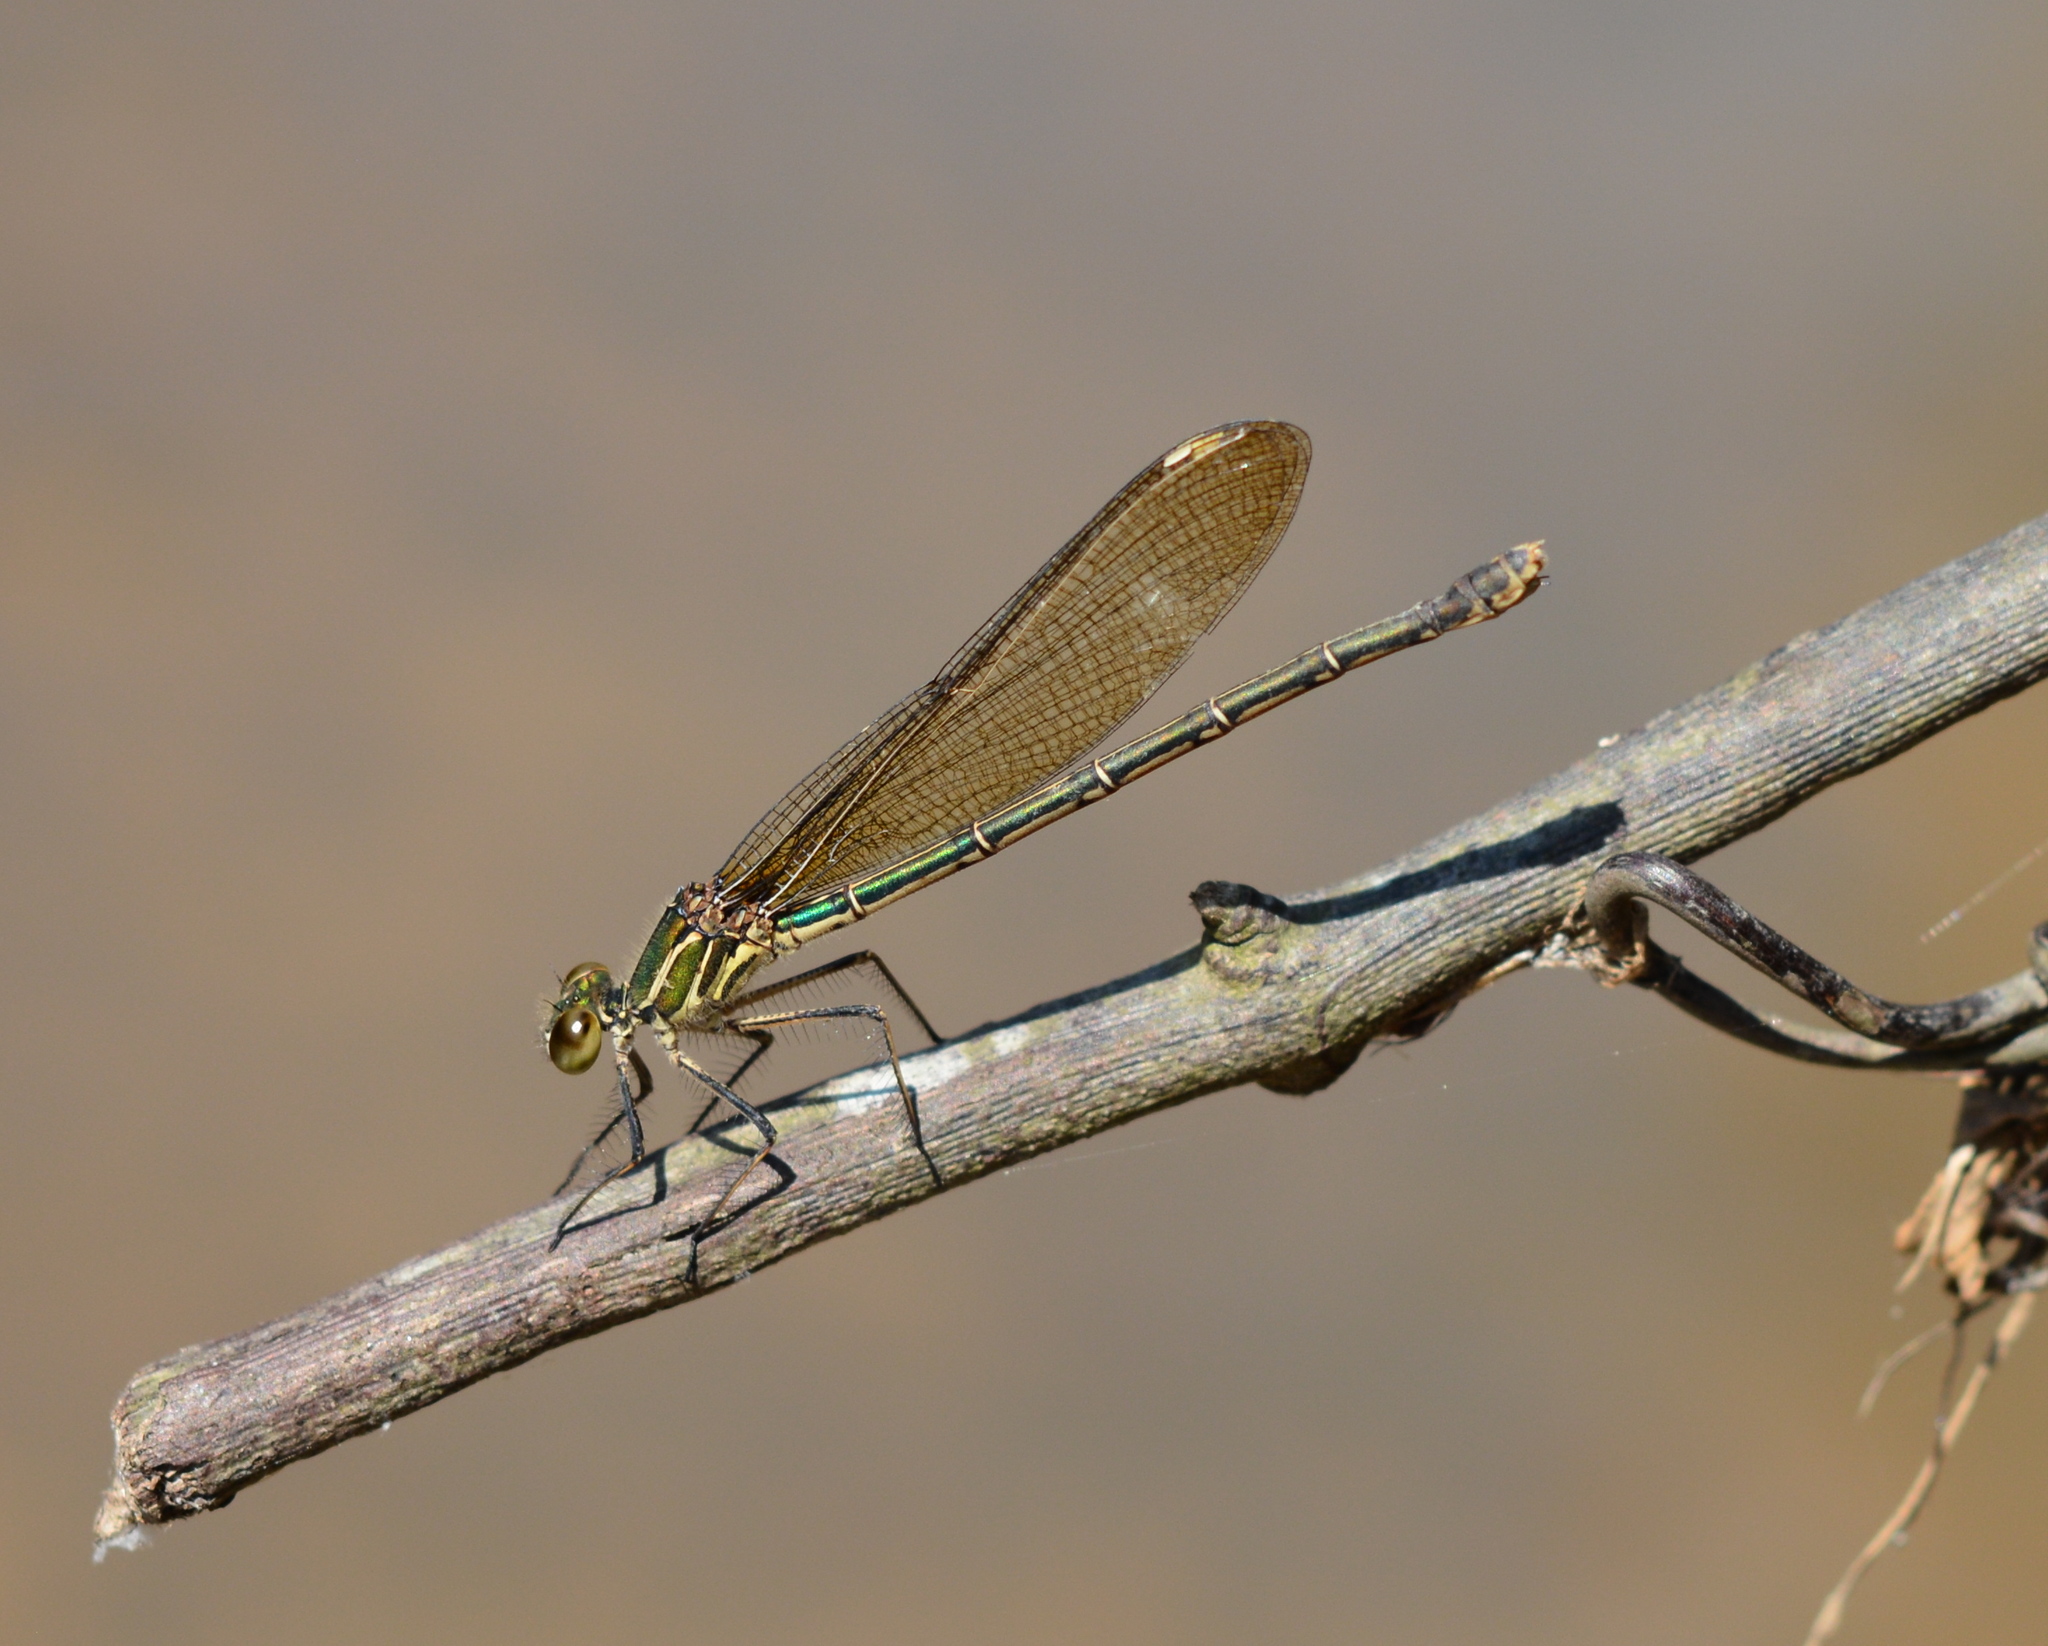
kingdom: Animalia
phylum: Arthropoda
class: Insecta
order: Odonata
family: Calopterygidae
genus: Hetaerina
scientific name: Hetaerina americana
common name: American rubyspot
